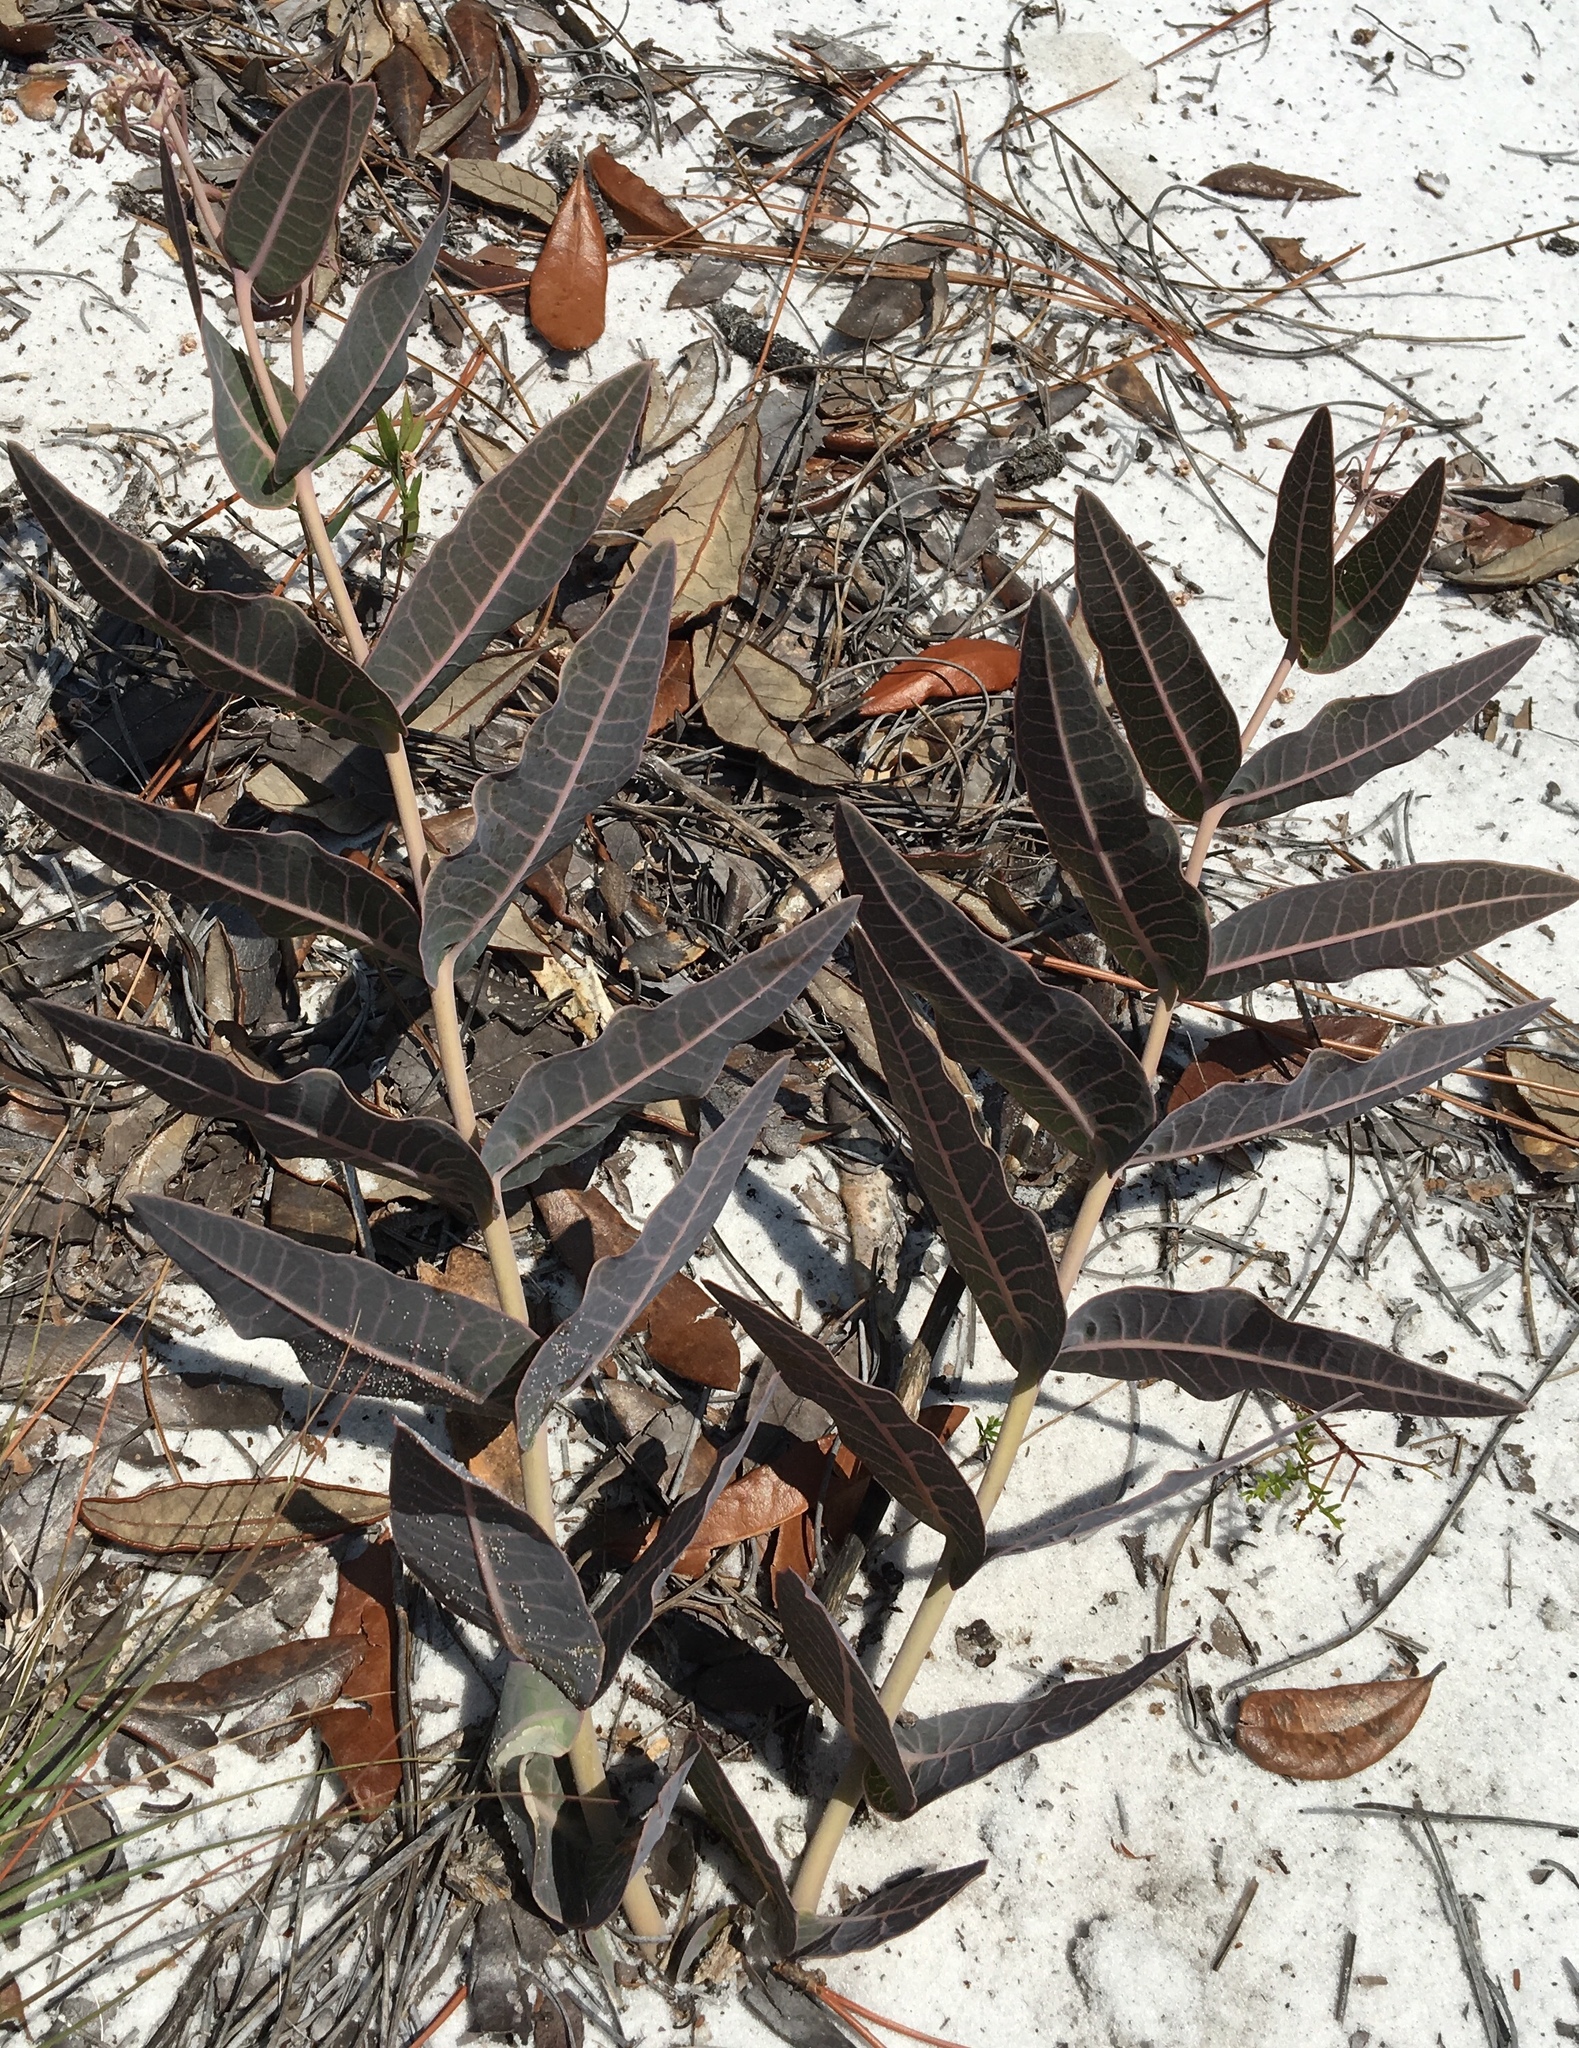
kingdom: Plantae
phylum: Tracheophyta
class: Magnoliopsida
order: Gentianales
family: Apocynaceae
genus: Asclepias
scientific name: Asclepias humistrata
